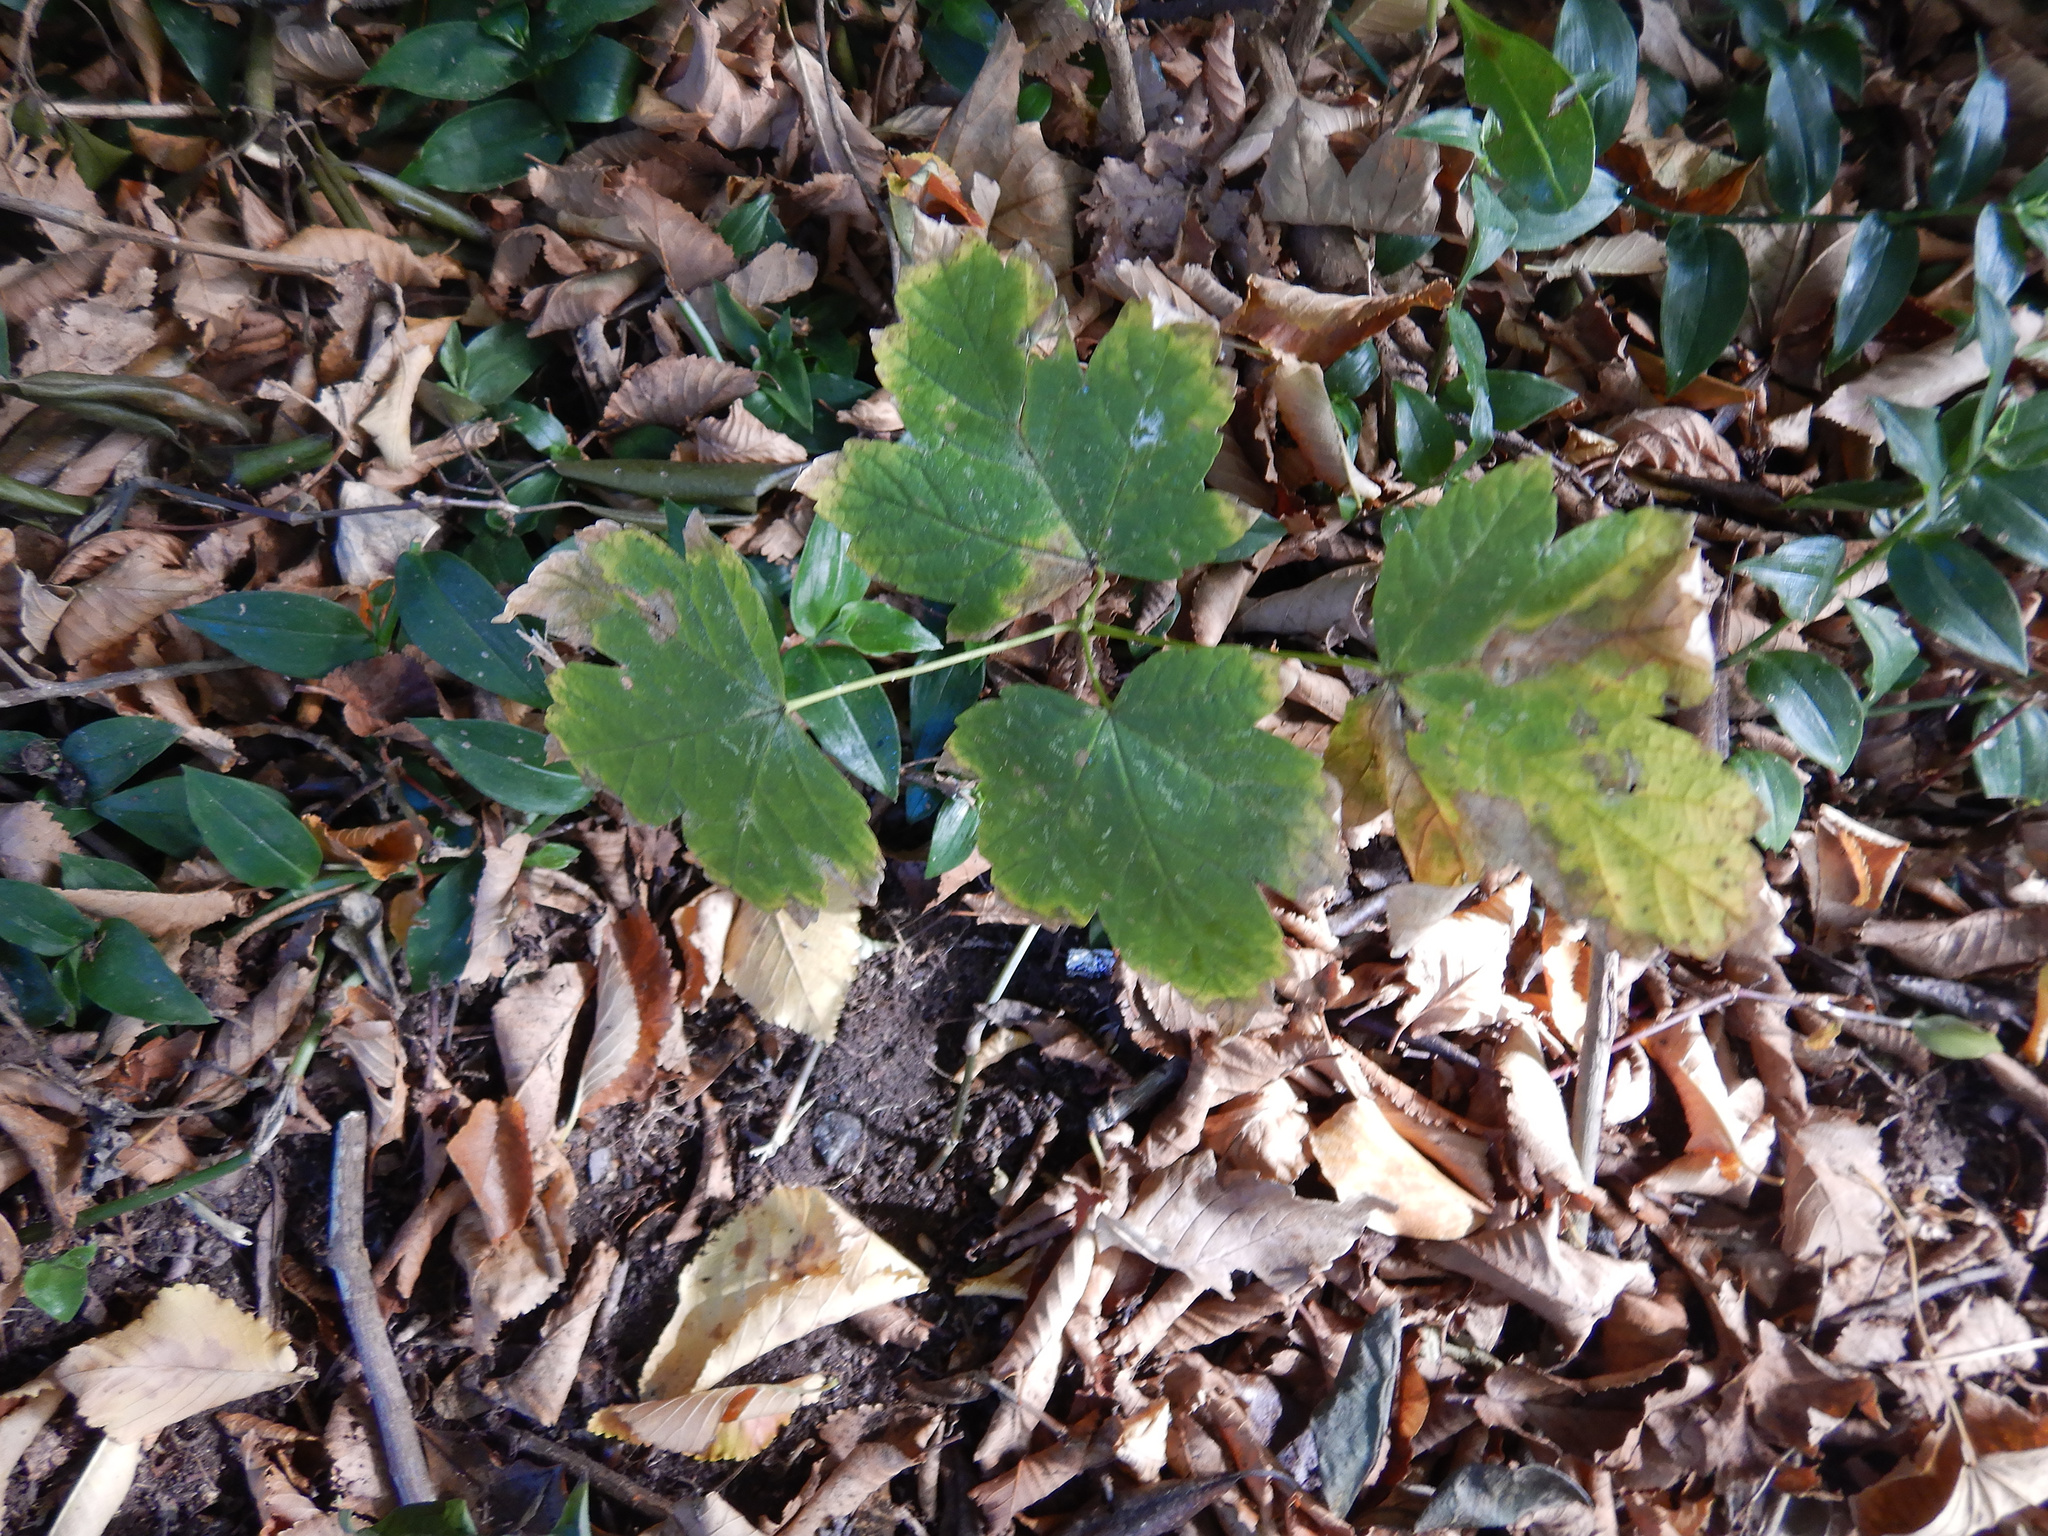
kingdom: Plantae
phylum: Tracheophyta
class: Magnoliopsida
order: Sapindales
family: Sapindaceae
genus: Acer
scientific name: Acer pseudoplatanus
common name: Sycamore
